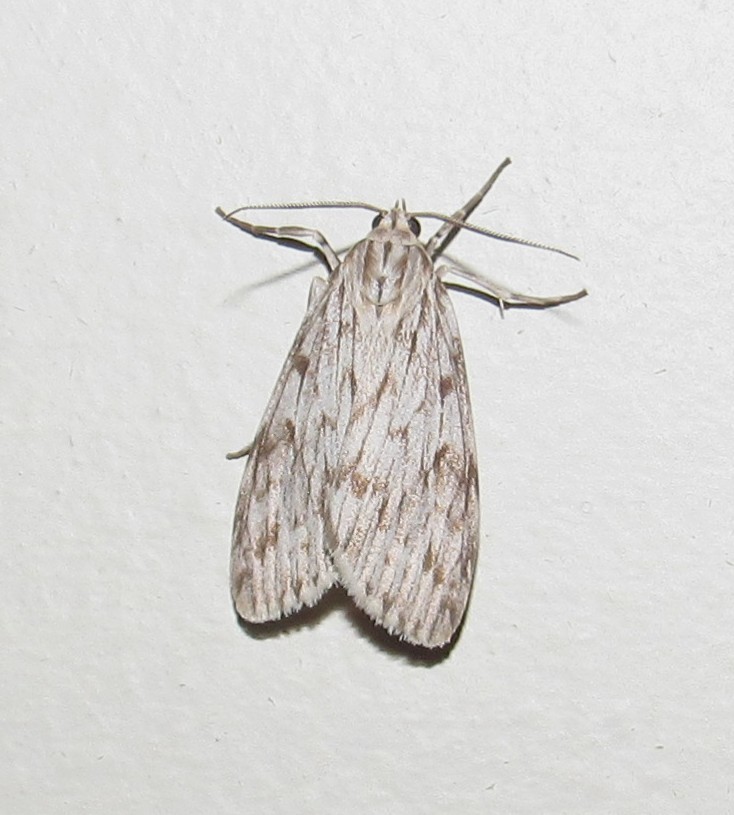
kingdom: Animalia
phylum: Arthropoda
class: Insecta
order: Lepidoptera
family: Erebidae
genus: Eucereon
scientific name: Eucereon ladas
